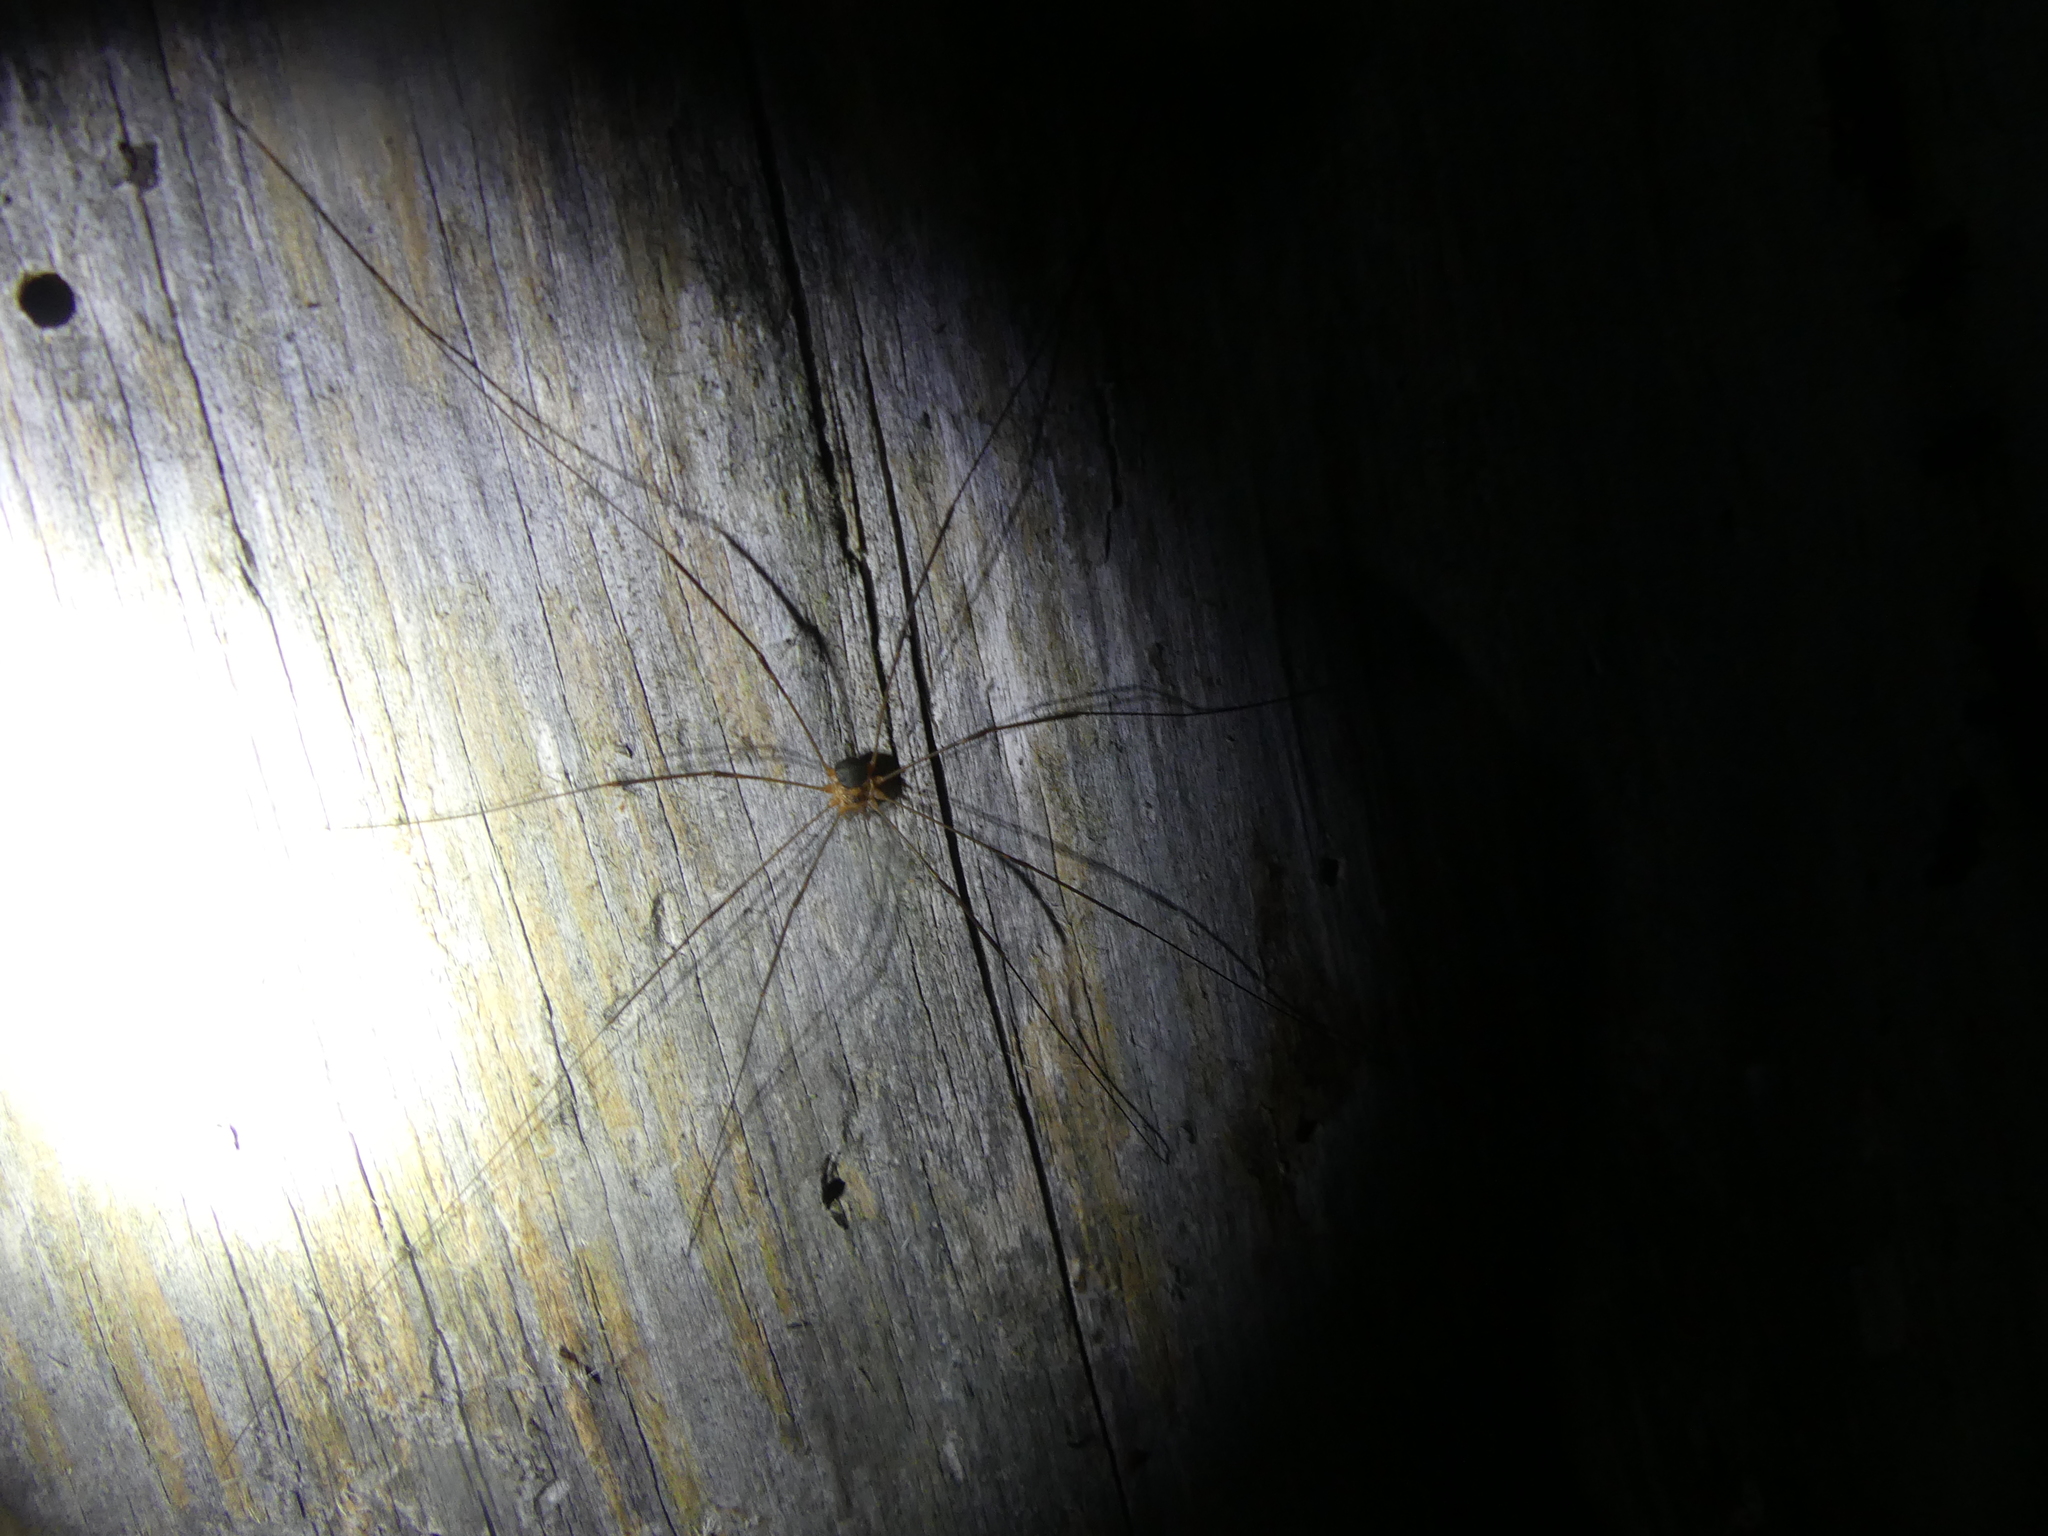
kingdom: Animalia
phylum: Arthropoda
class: Arachnida
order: Opiliones
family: Phalangiidae
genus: Amilenus
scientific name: Amilenus aurantiacus
